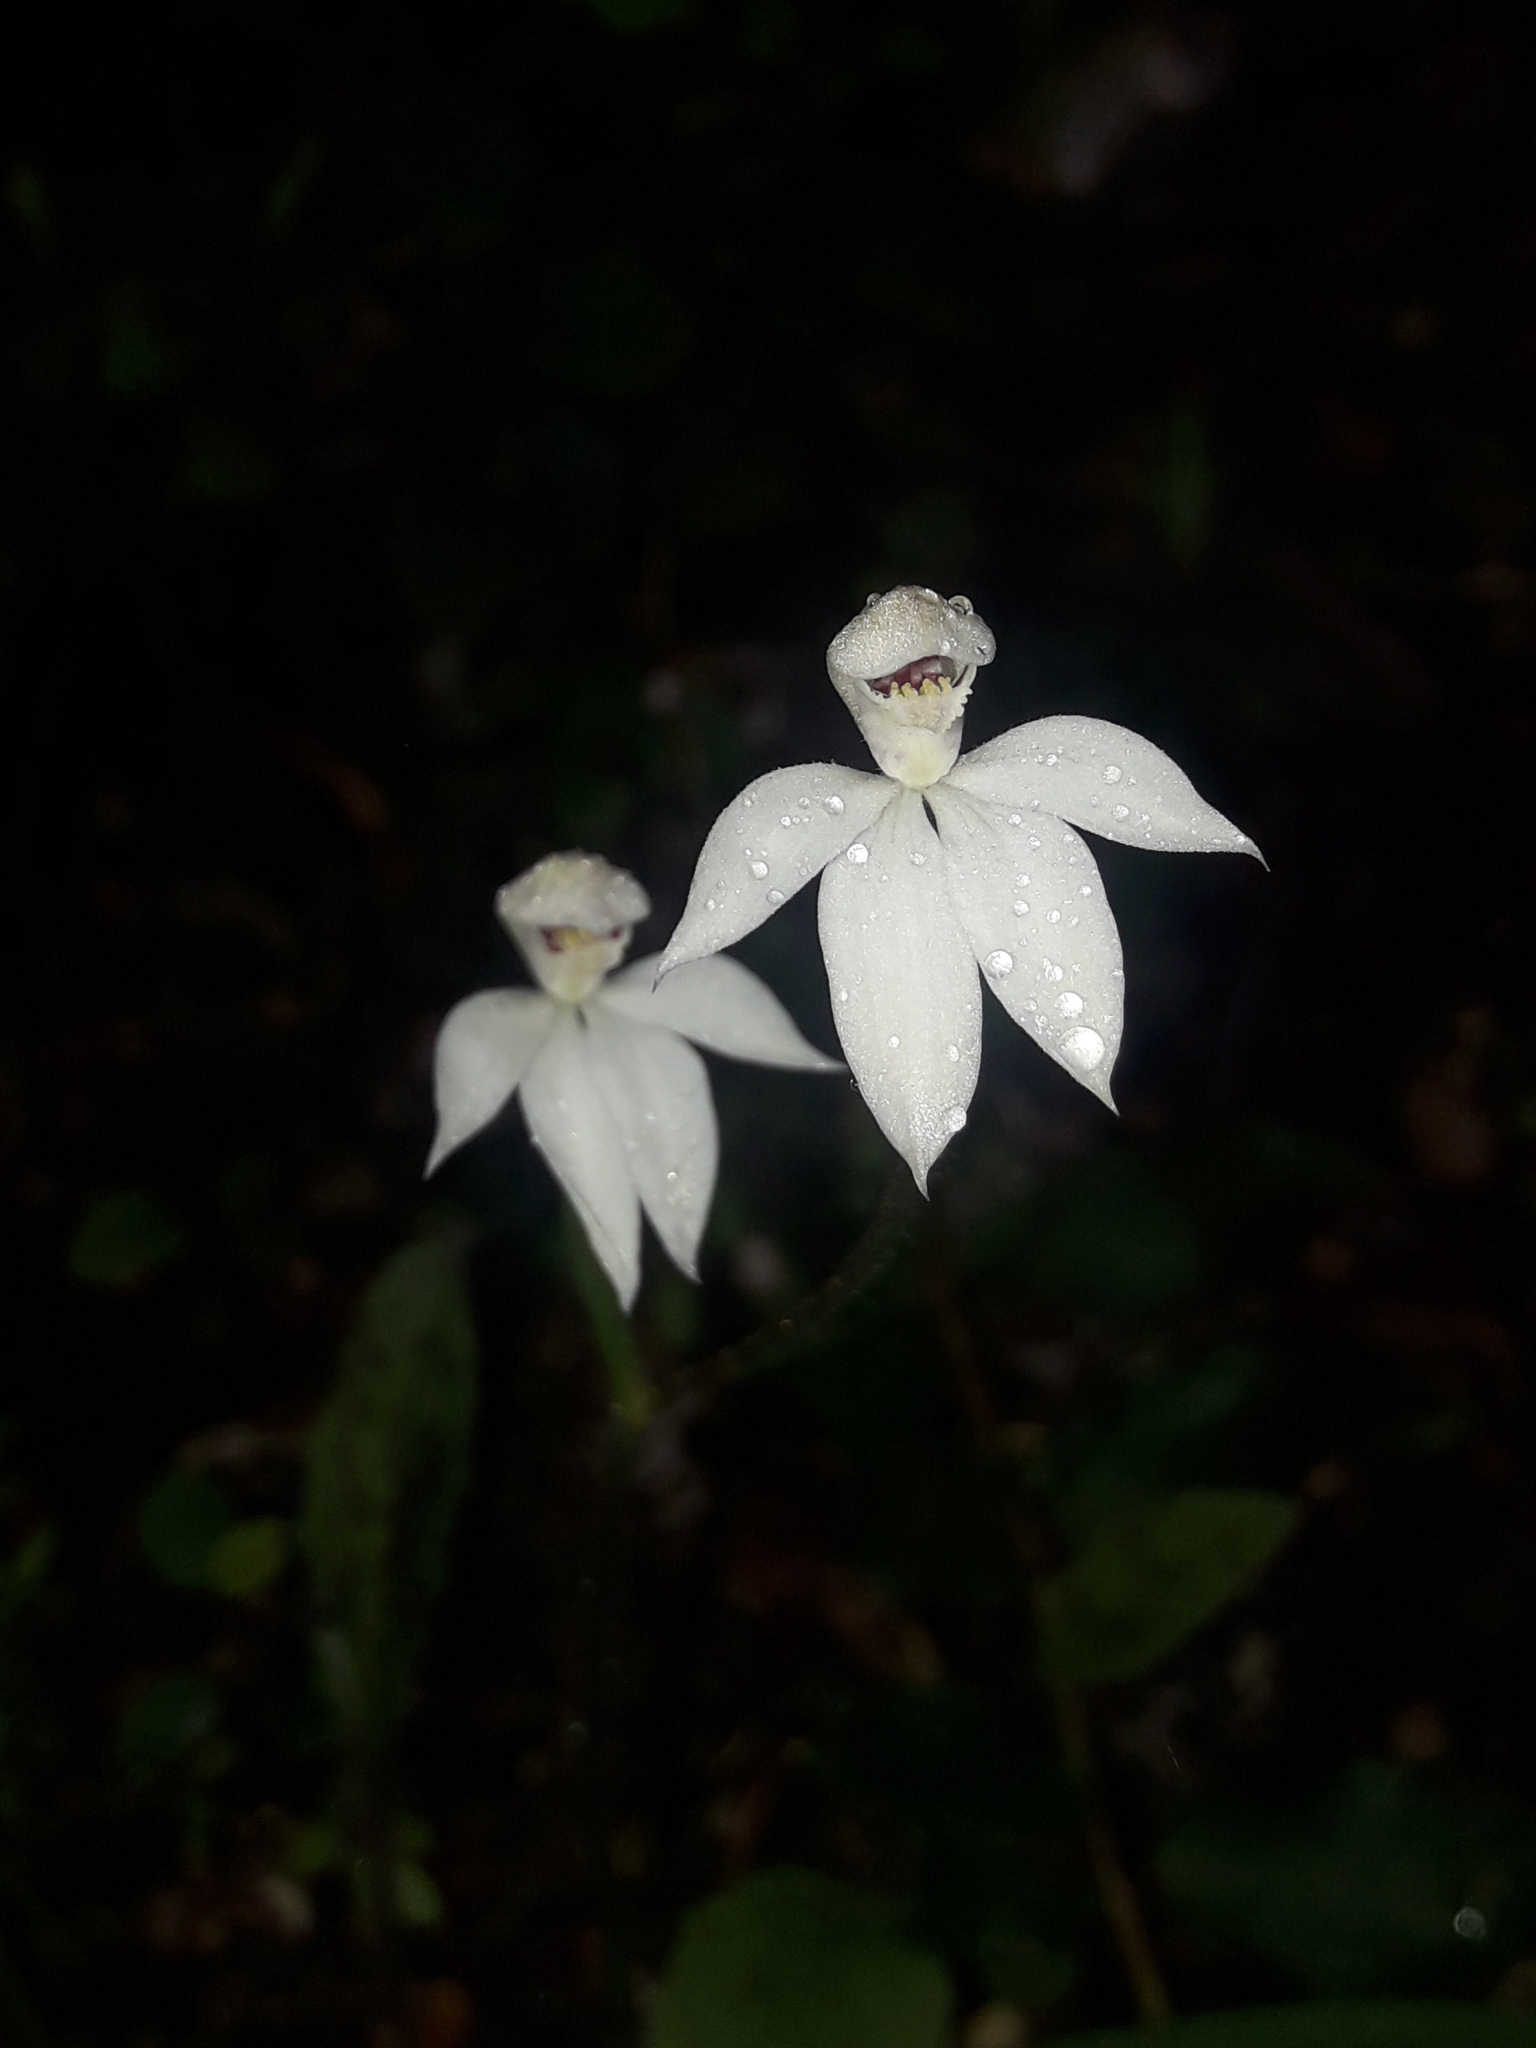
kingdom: Plantae
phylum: Tracheophyta
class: Liliopsida
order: Asparagales
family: Orchidaceae
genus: Caladenia
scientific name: Caladenia lyallii
